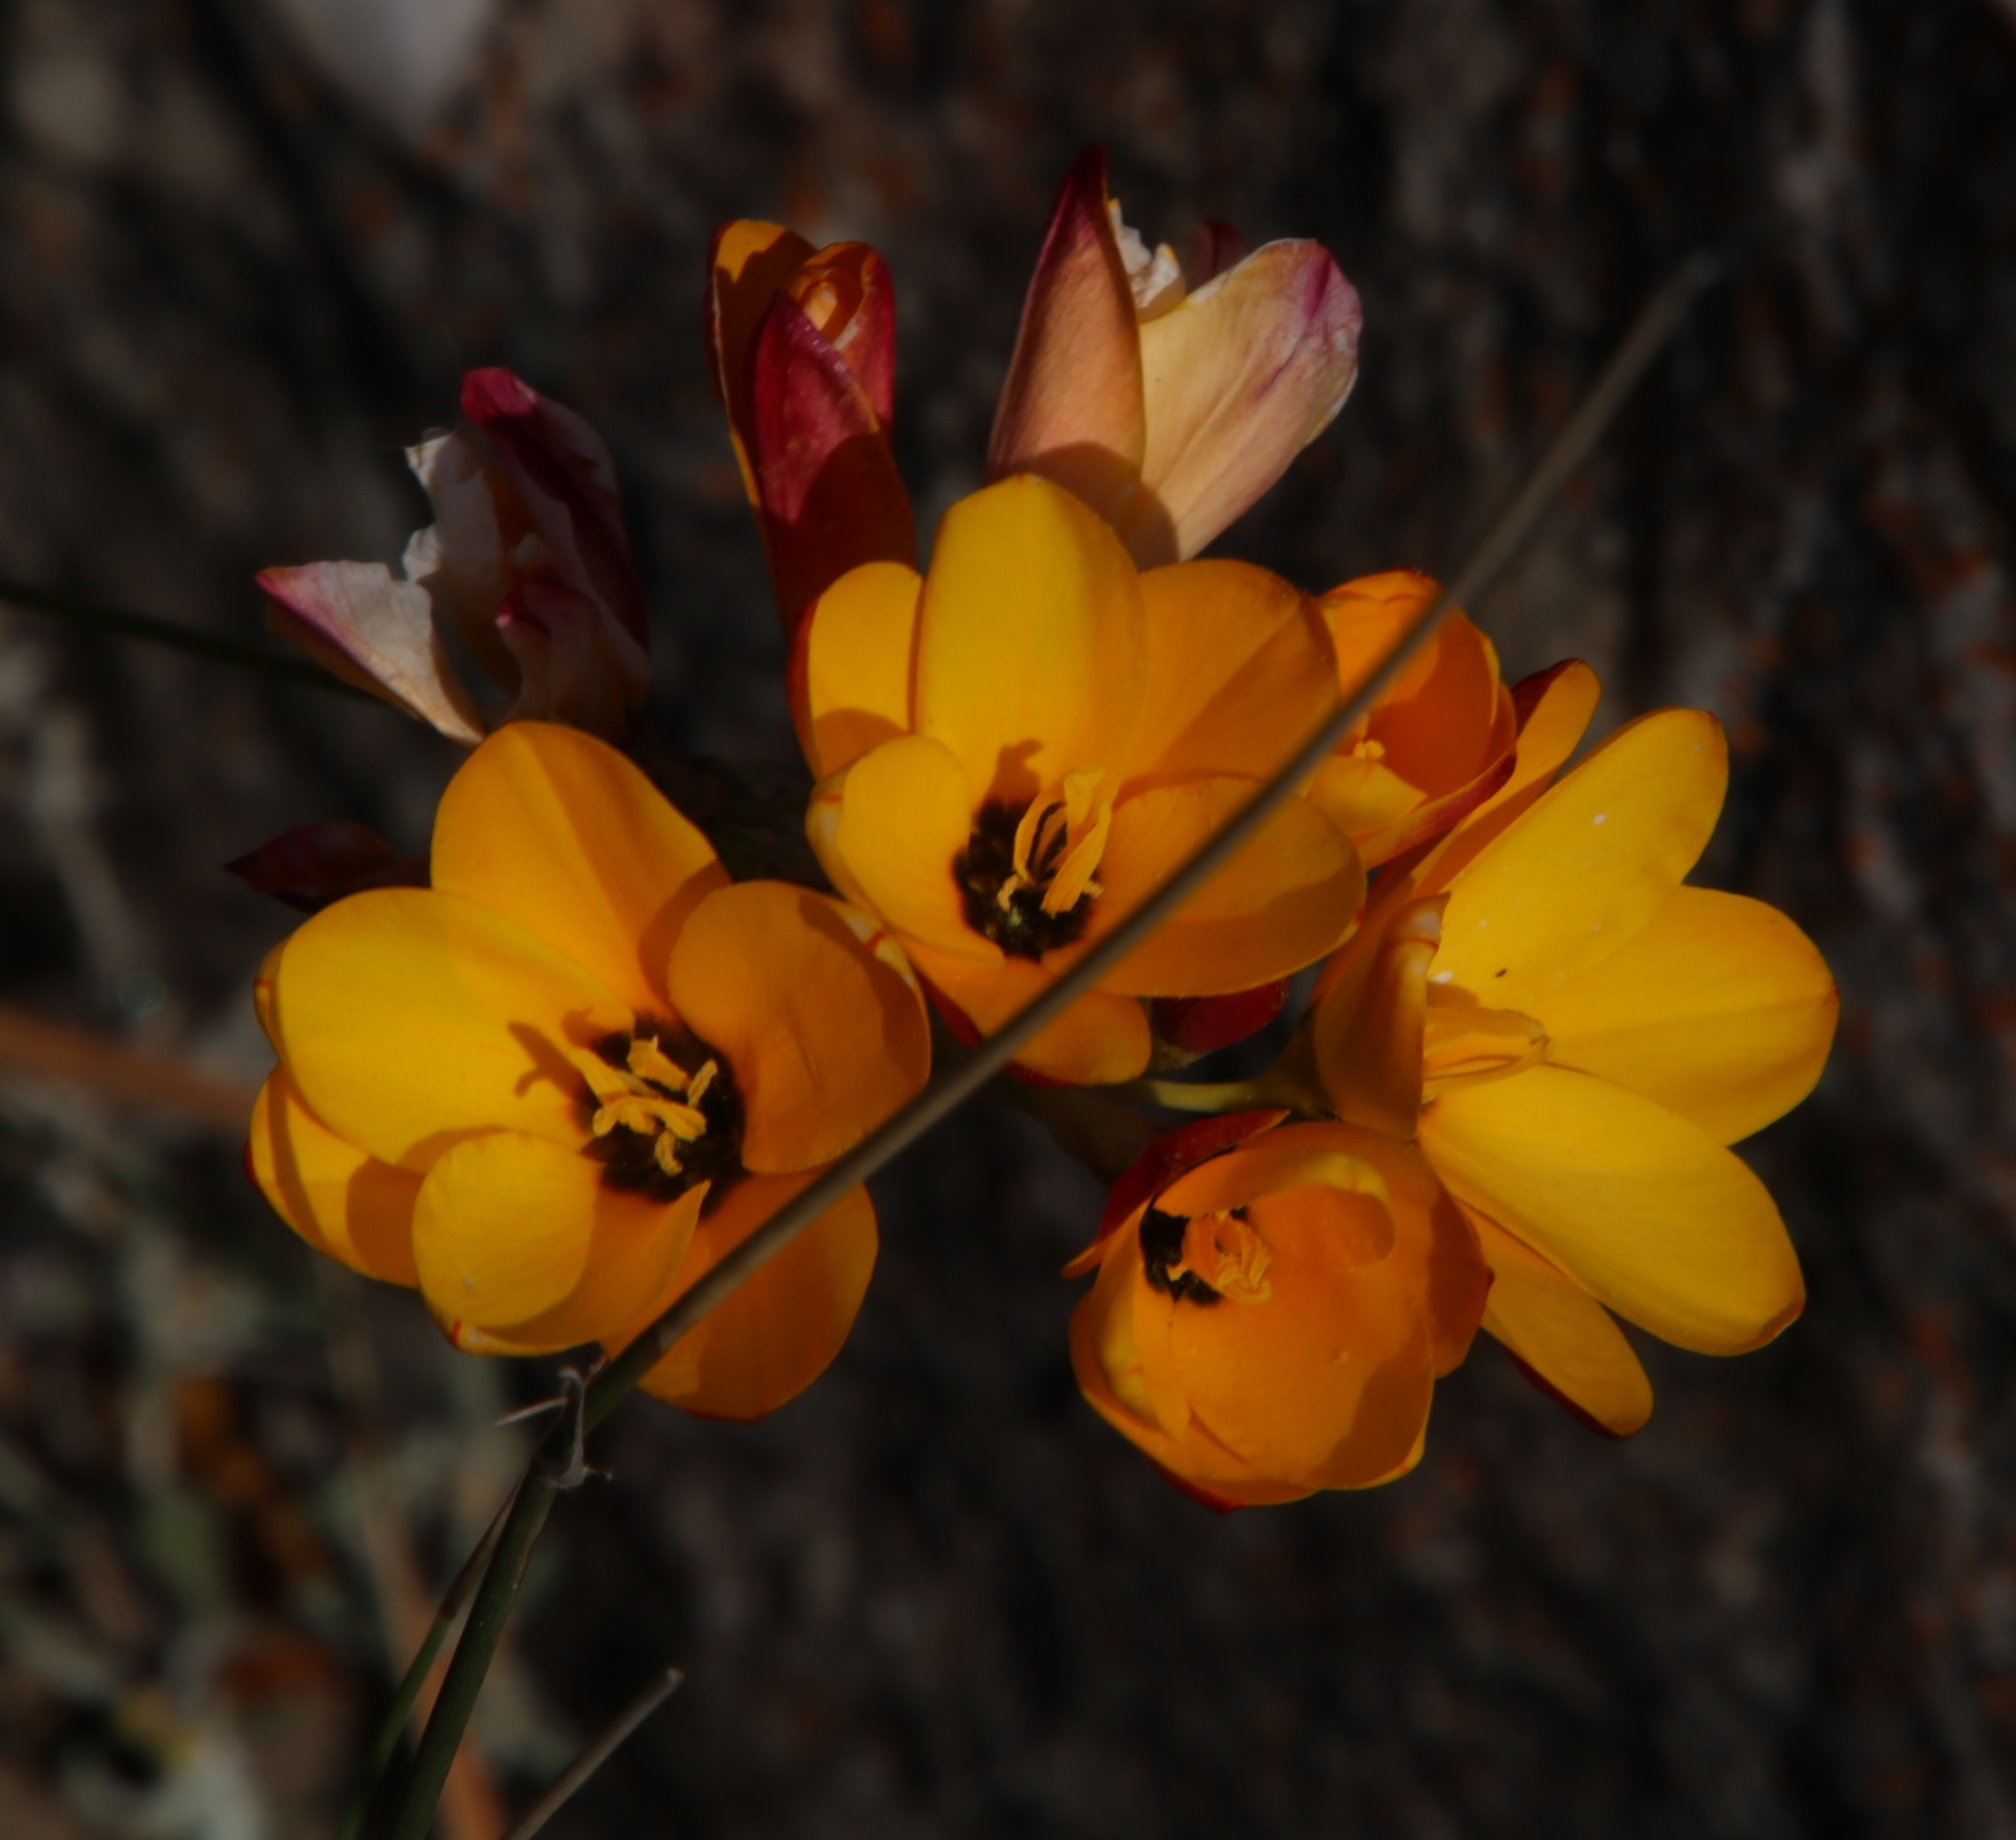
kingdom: Plantae
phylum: Tracheophyta
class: Liliopsida
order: Asparagales
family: Iridaceae
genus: Ixia
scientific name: Ixia dubia
